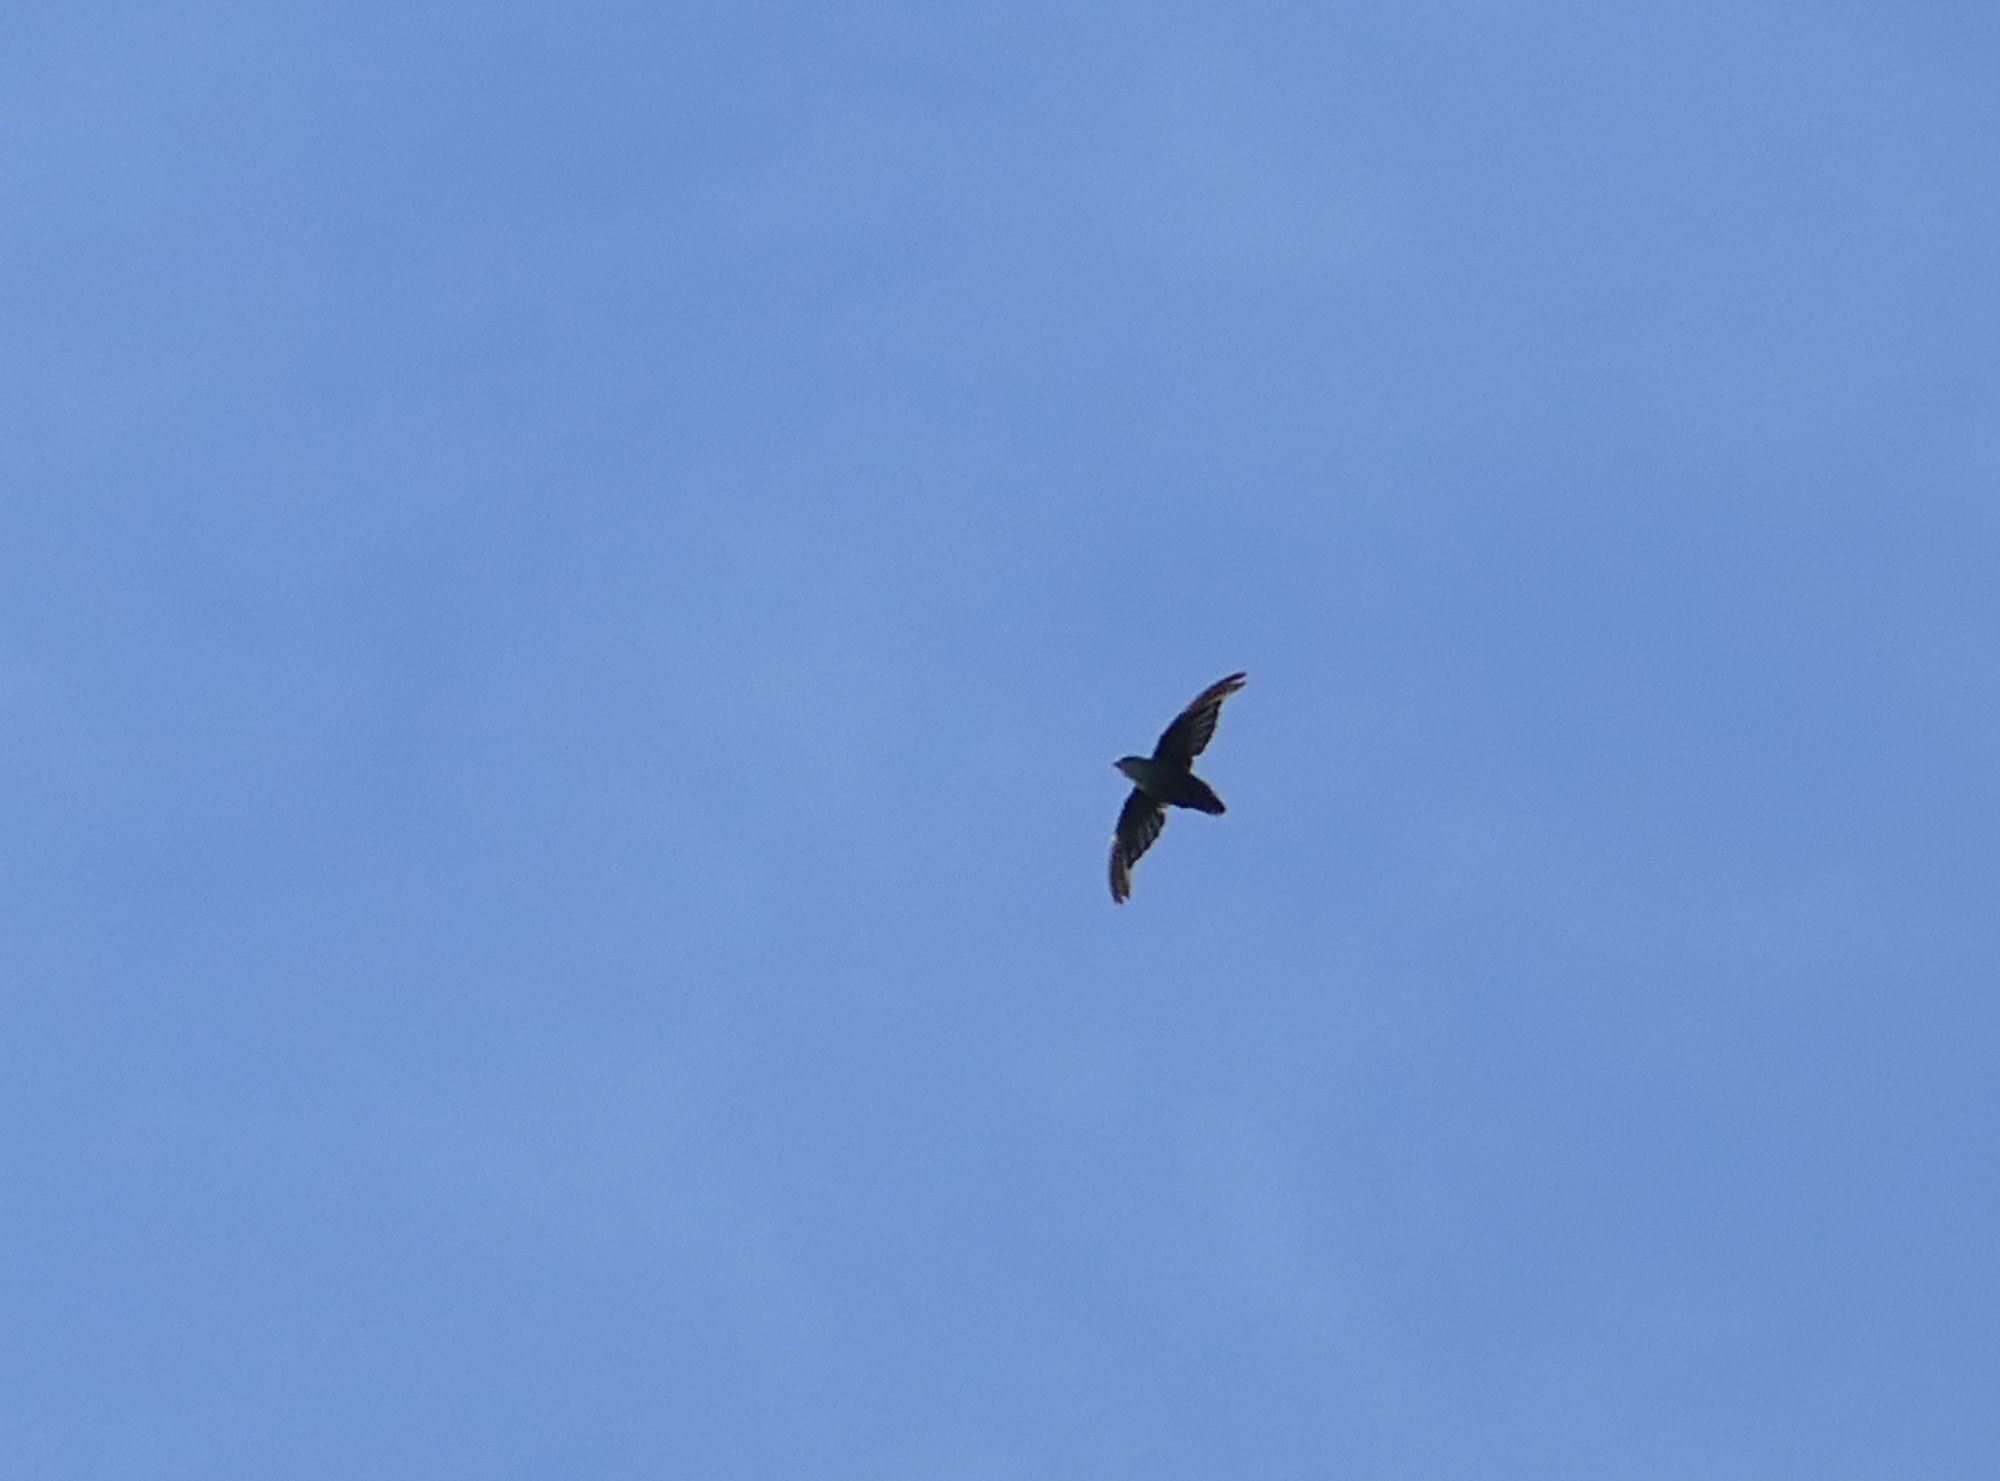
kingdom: Animalia
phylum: Chordata
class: Aves
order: Apodiformes
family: Apodidae
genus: Chaetura
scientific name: Chaetura pelagica
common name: Chimney swift
